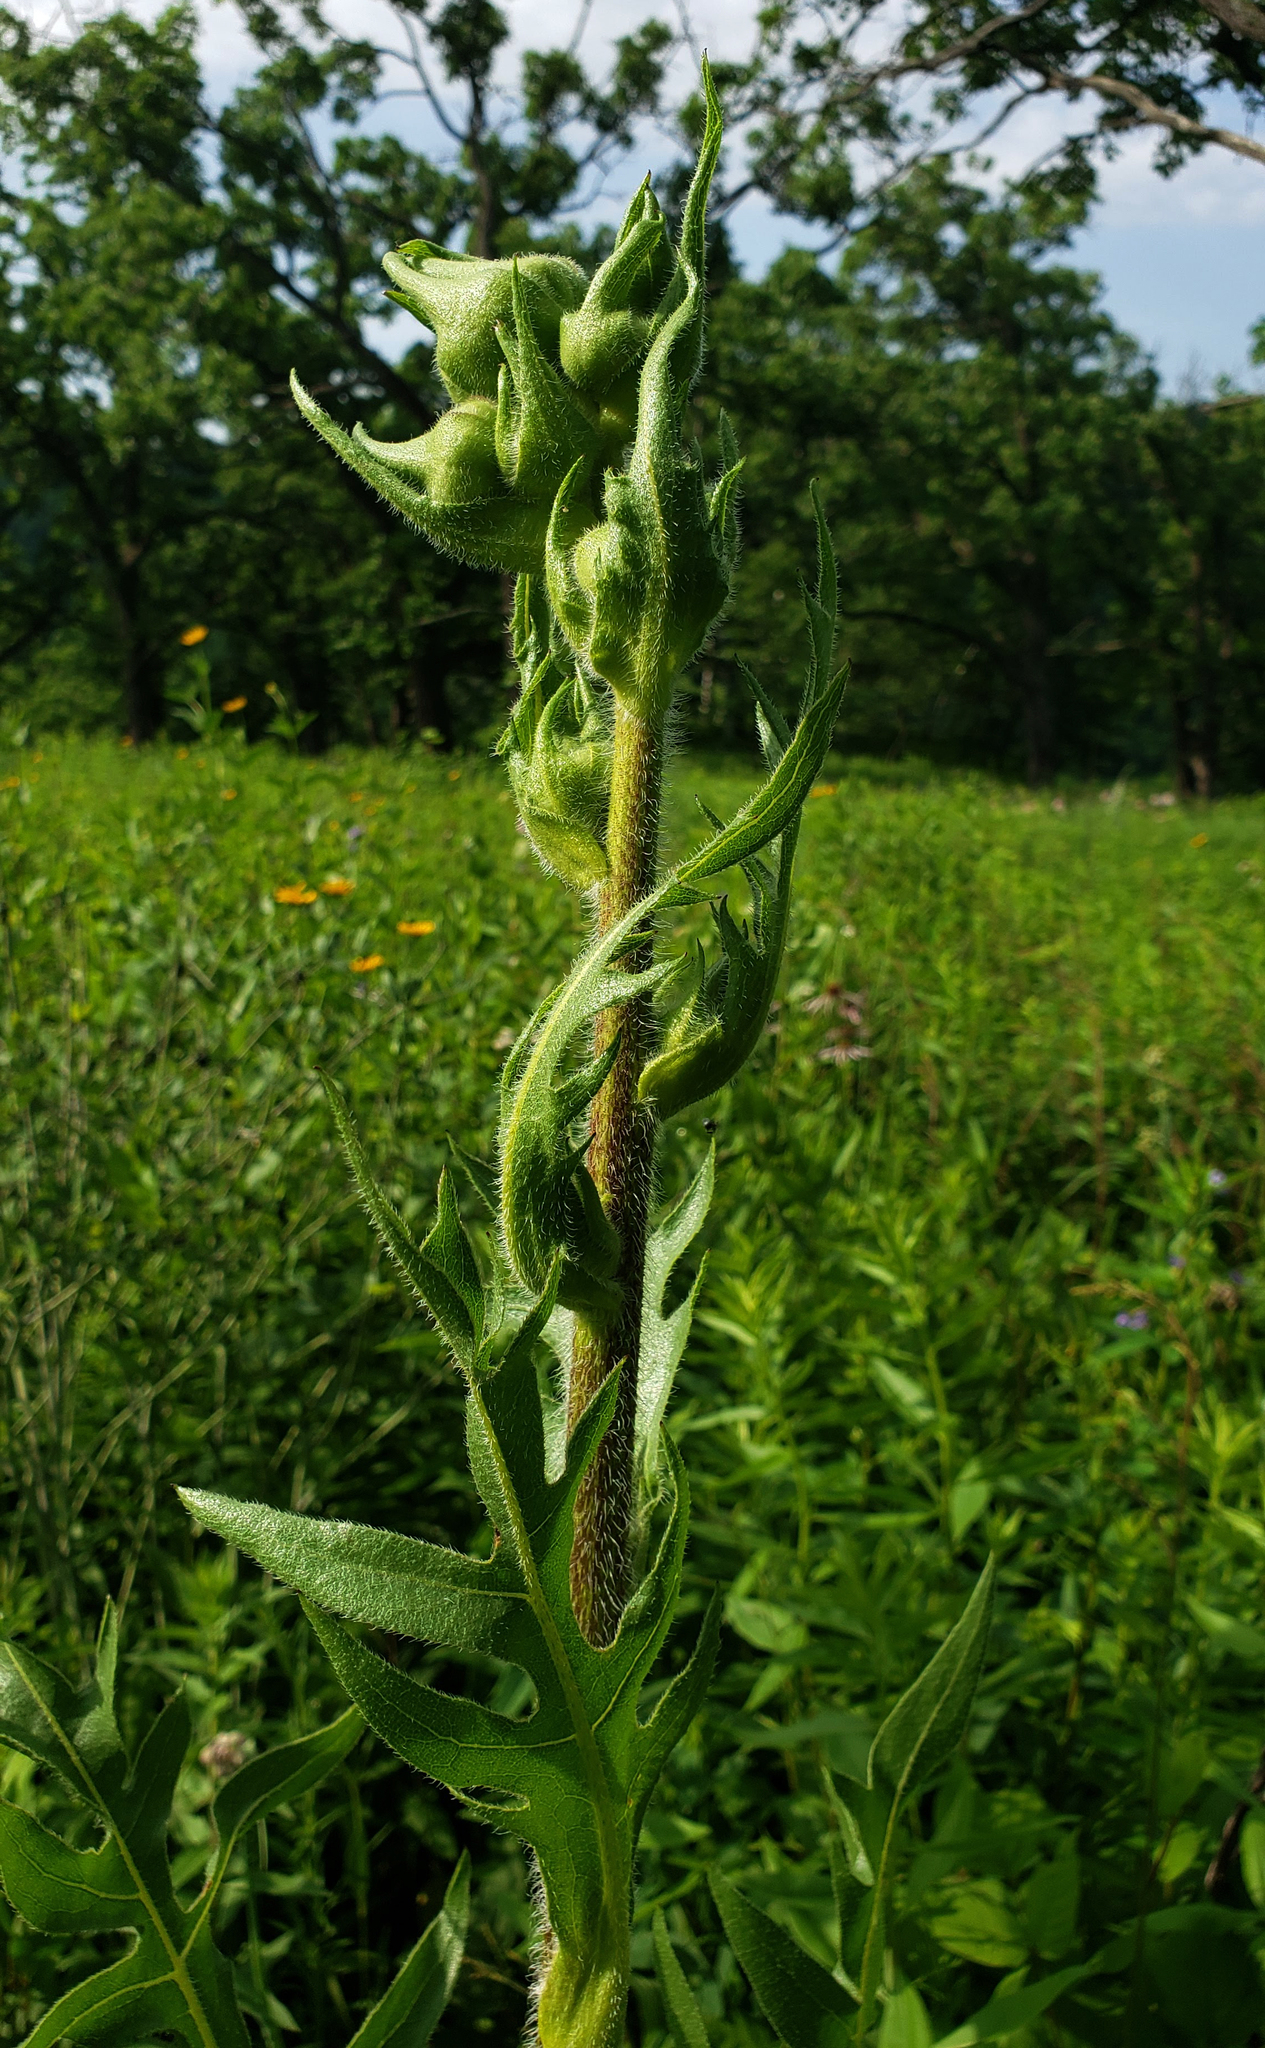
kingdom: Plantae
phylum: Tracheophyta
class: Magnoliopsida
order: Asterales
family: Asteraceae
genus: Silphium
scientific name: Silphium laciniatum
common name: Polarplant
